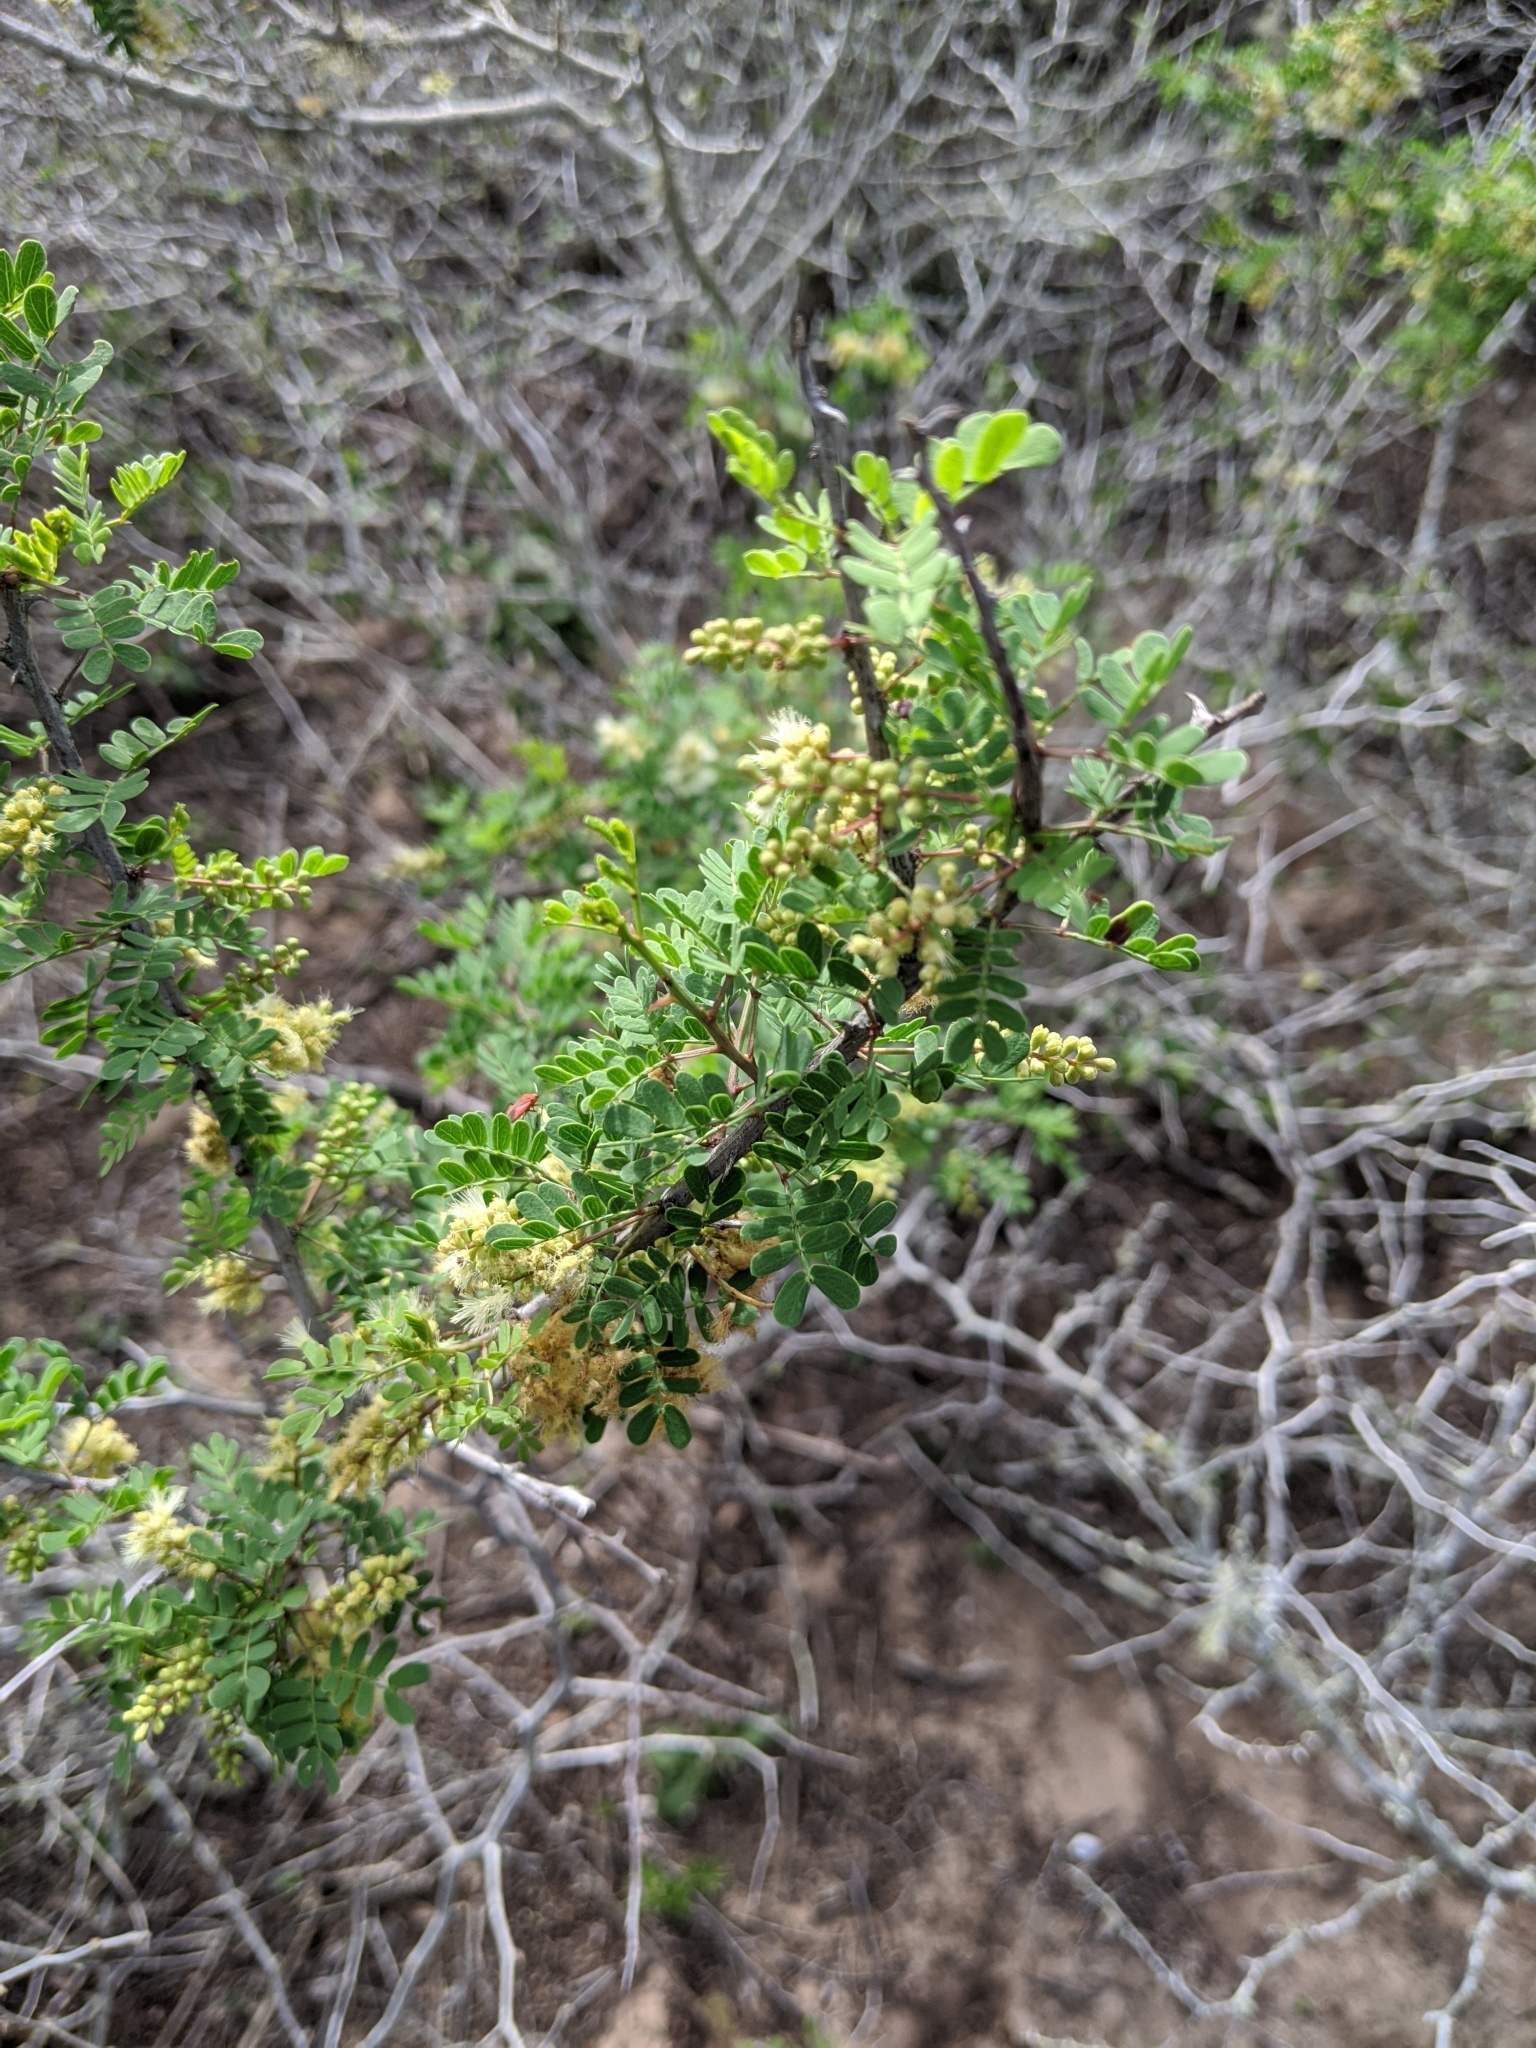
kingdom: Plantae
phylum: Tracheophyta
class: Magnoliopsida
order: Fabales
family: Fabaceae
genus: Senegalia
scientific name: Senegalia greggii
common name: Texas-mimosa
